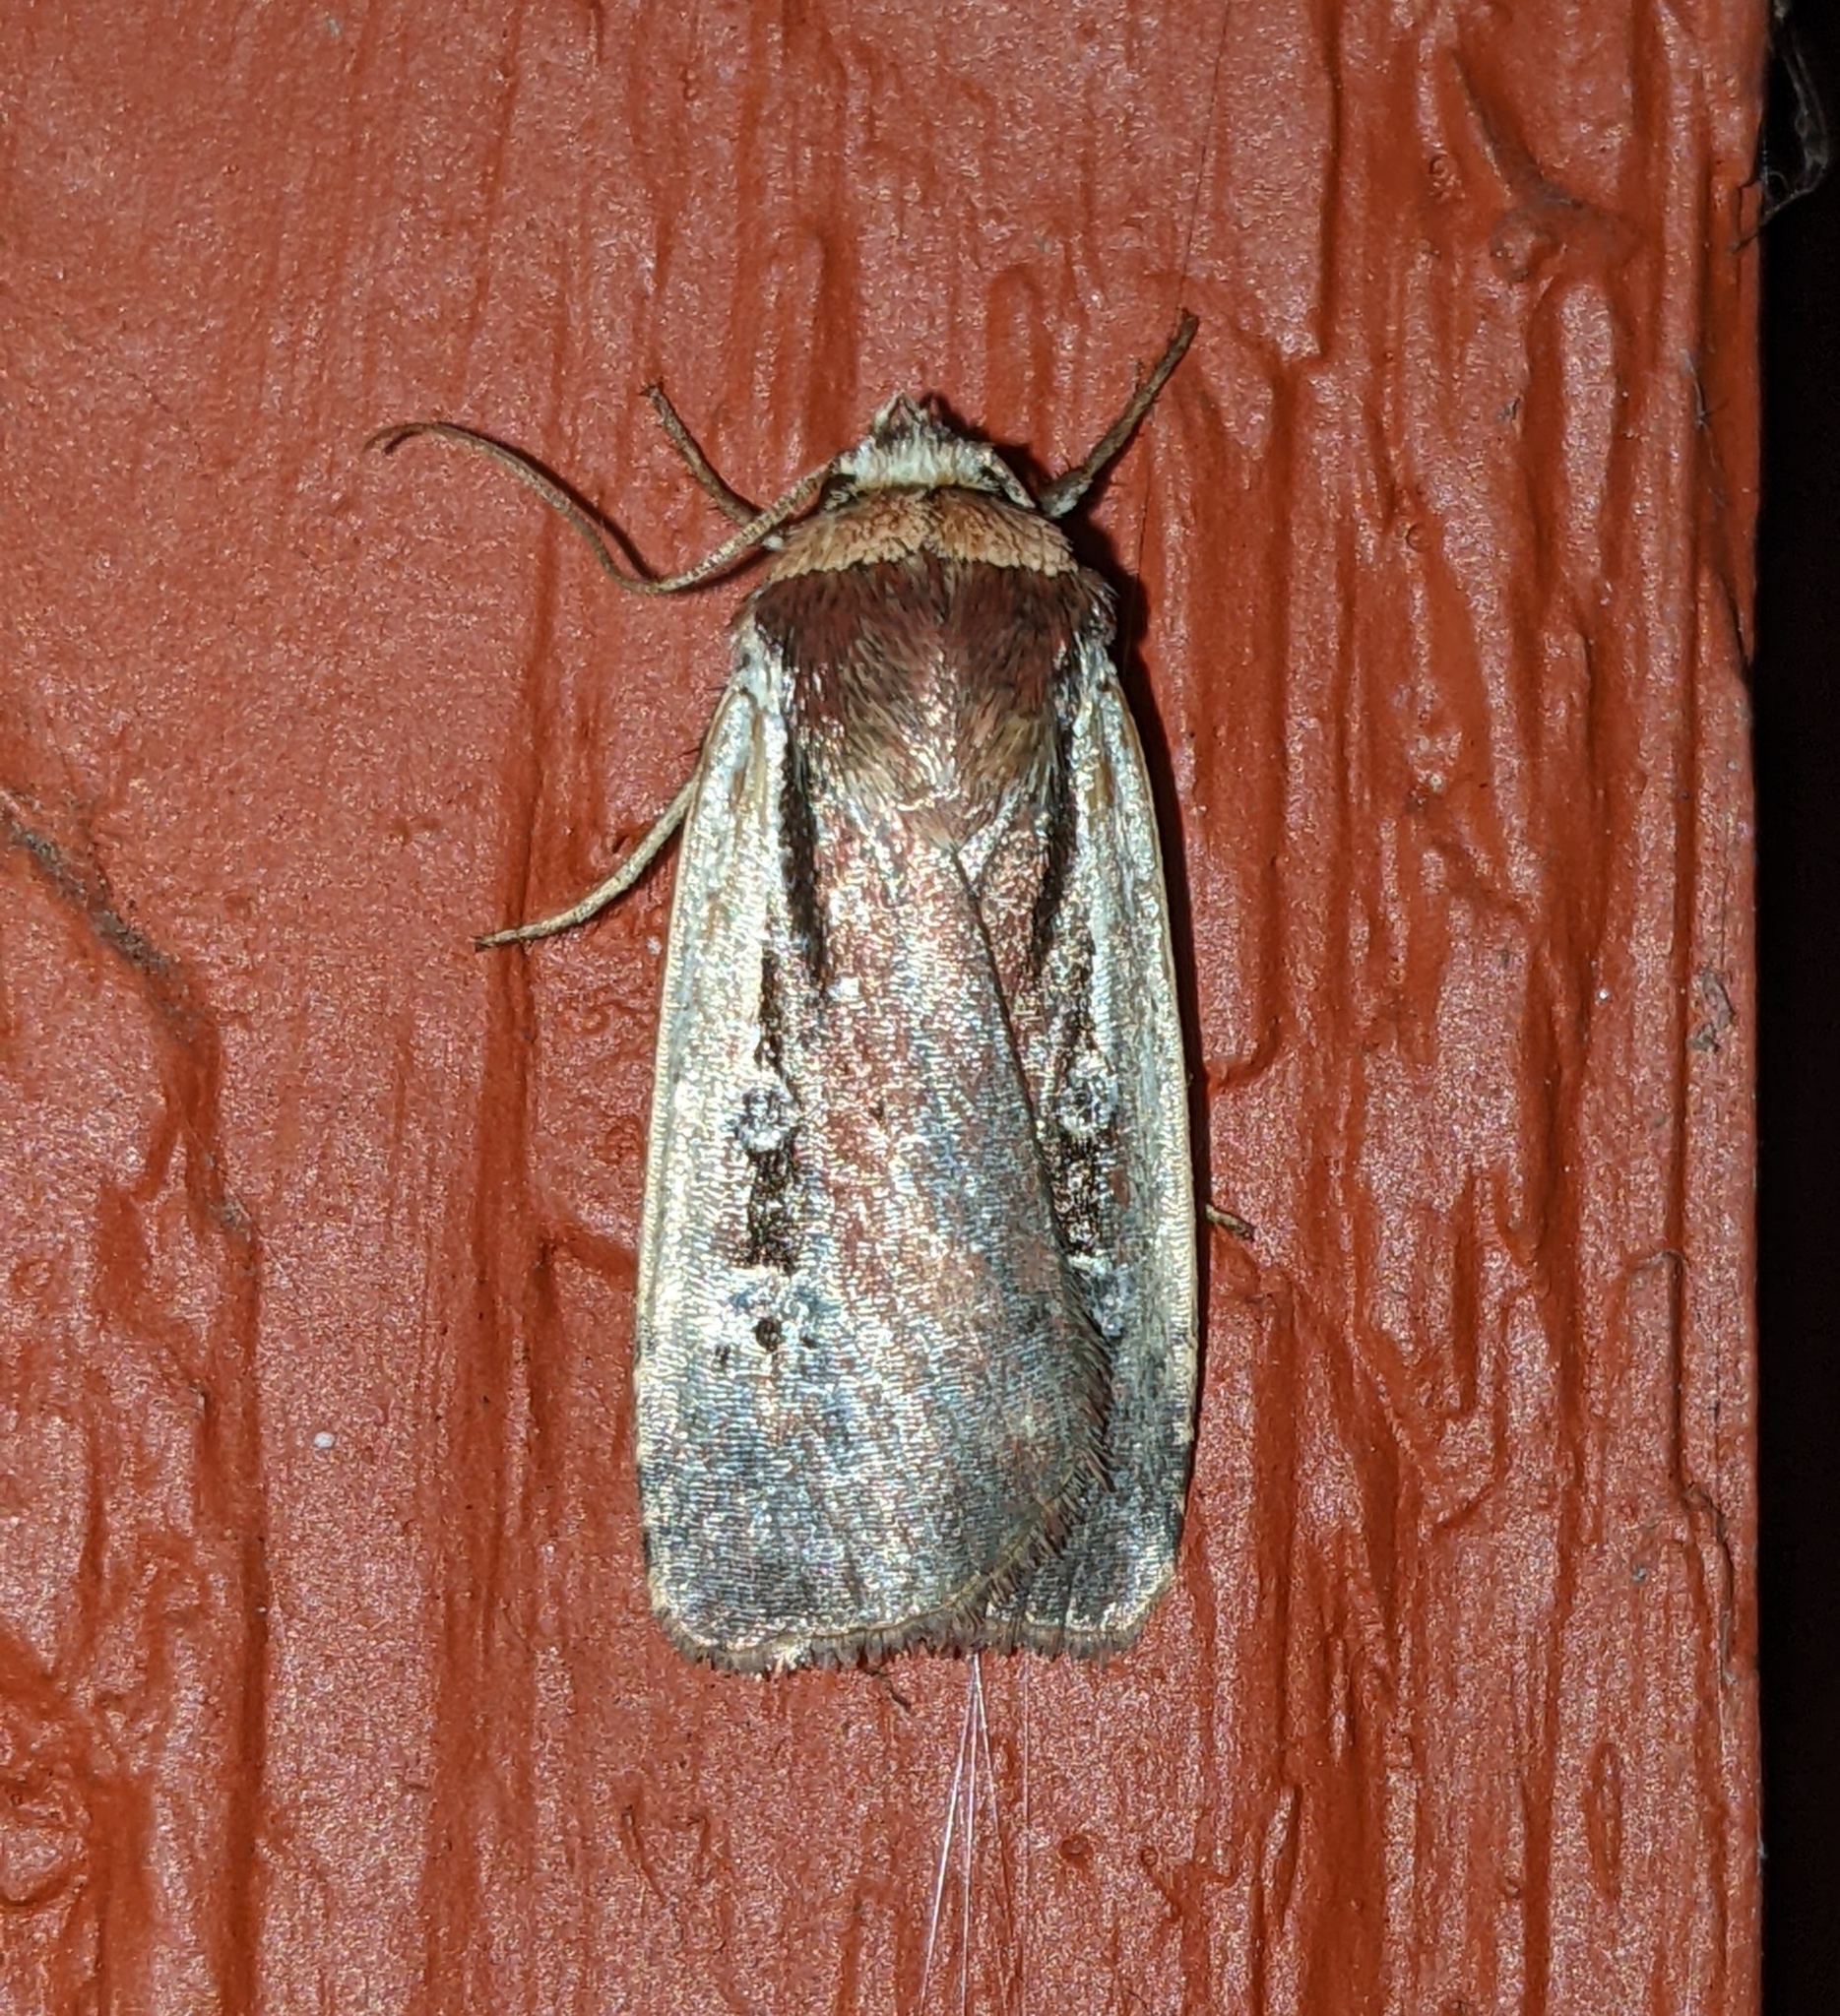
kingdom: Animalia
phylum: Arthropoda
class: Insecta
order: Lepidoptera
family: Noctuidae
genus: Ochropleura
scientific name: Ochropleura implecta
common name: Flame-shouldered dart
